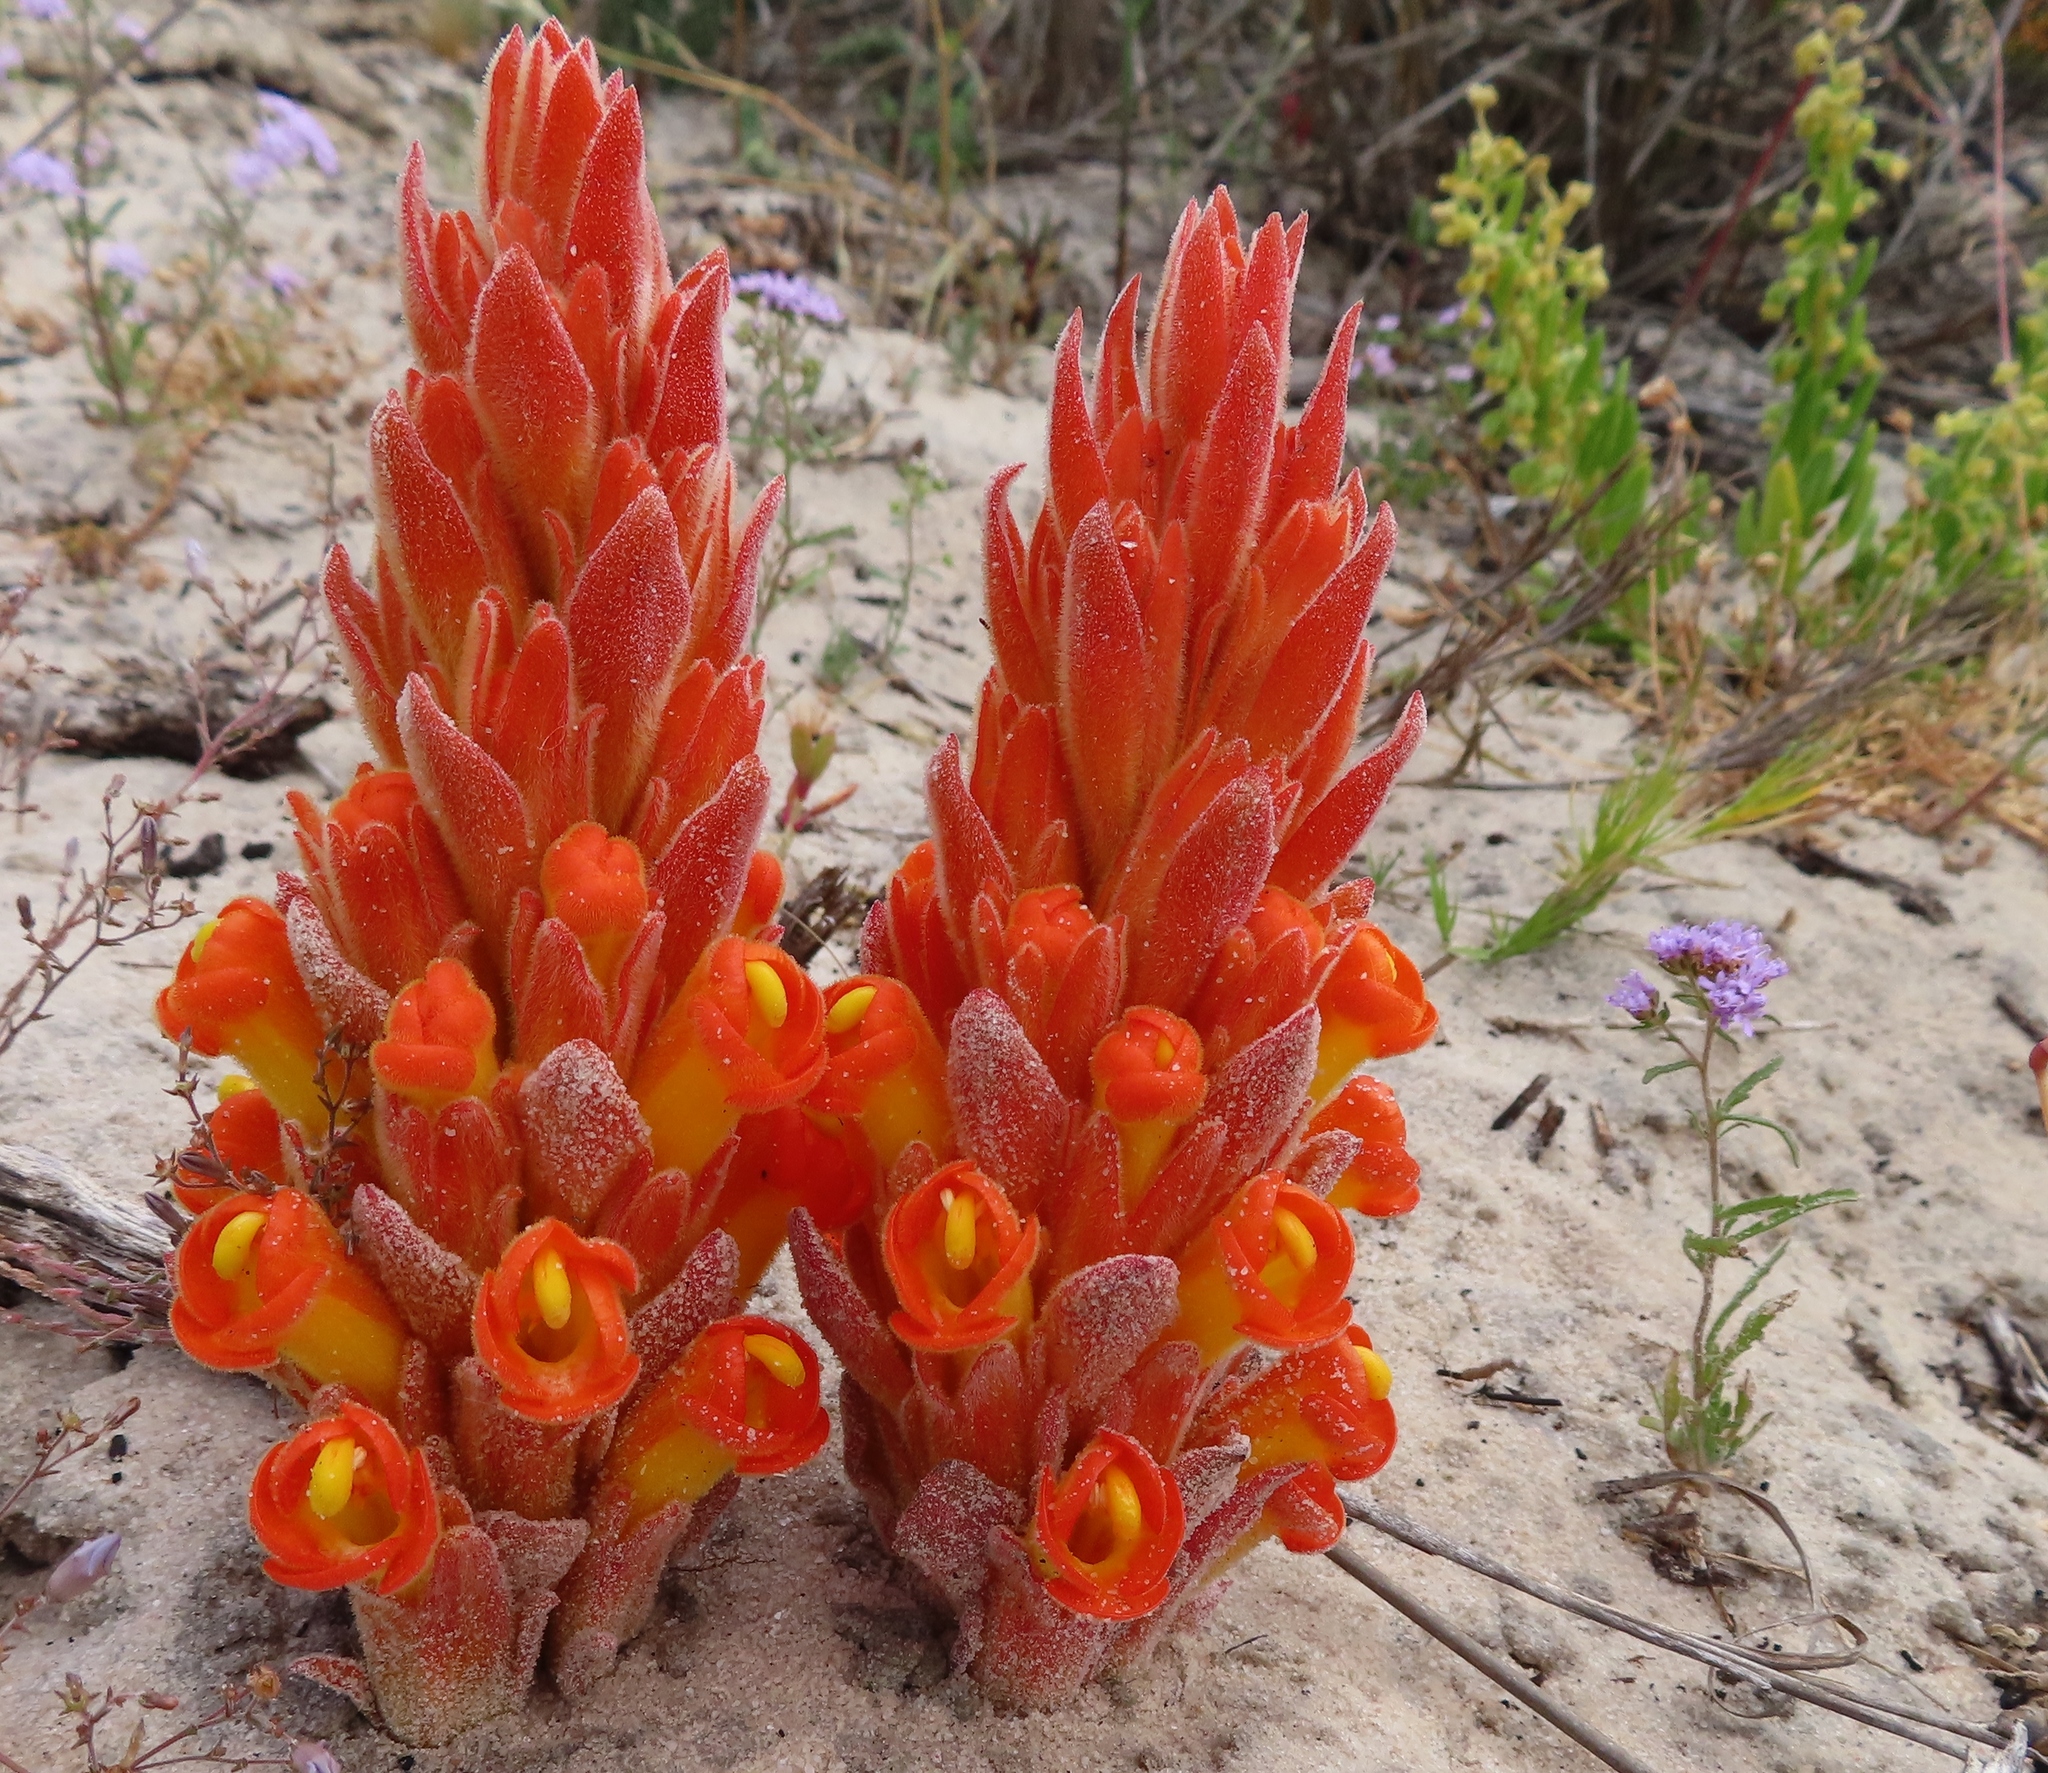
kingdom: Plantae
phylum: Tracheophyta
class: Magnoliopsida
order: Lamiales
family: Orobanchaceae
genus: Harveya
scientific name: Harveya squamosa
